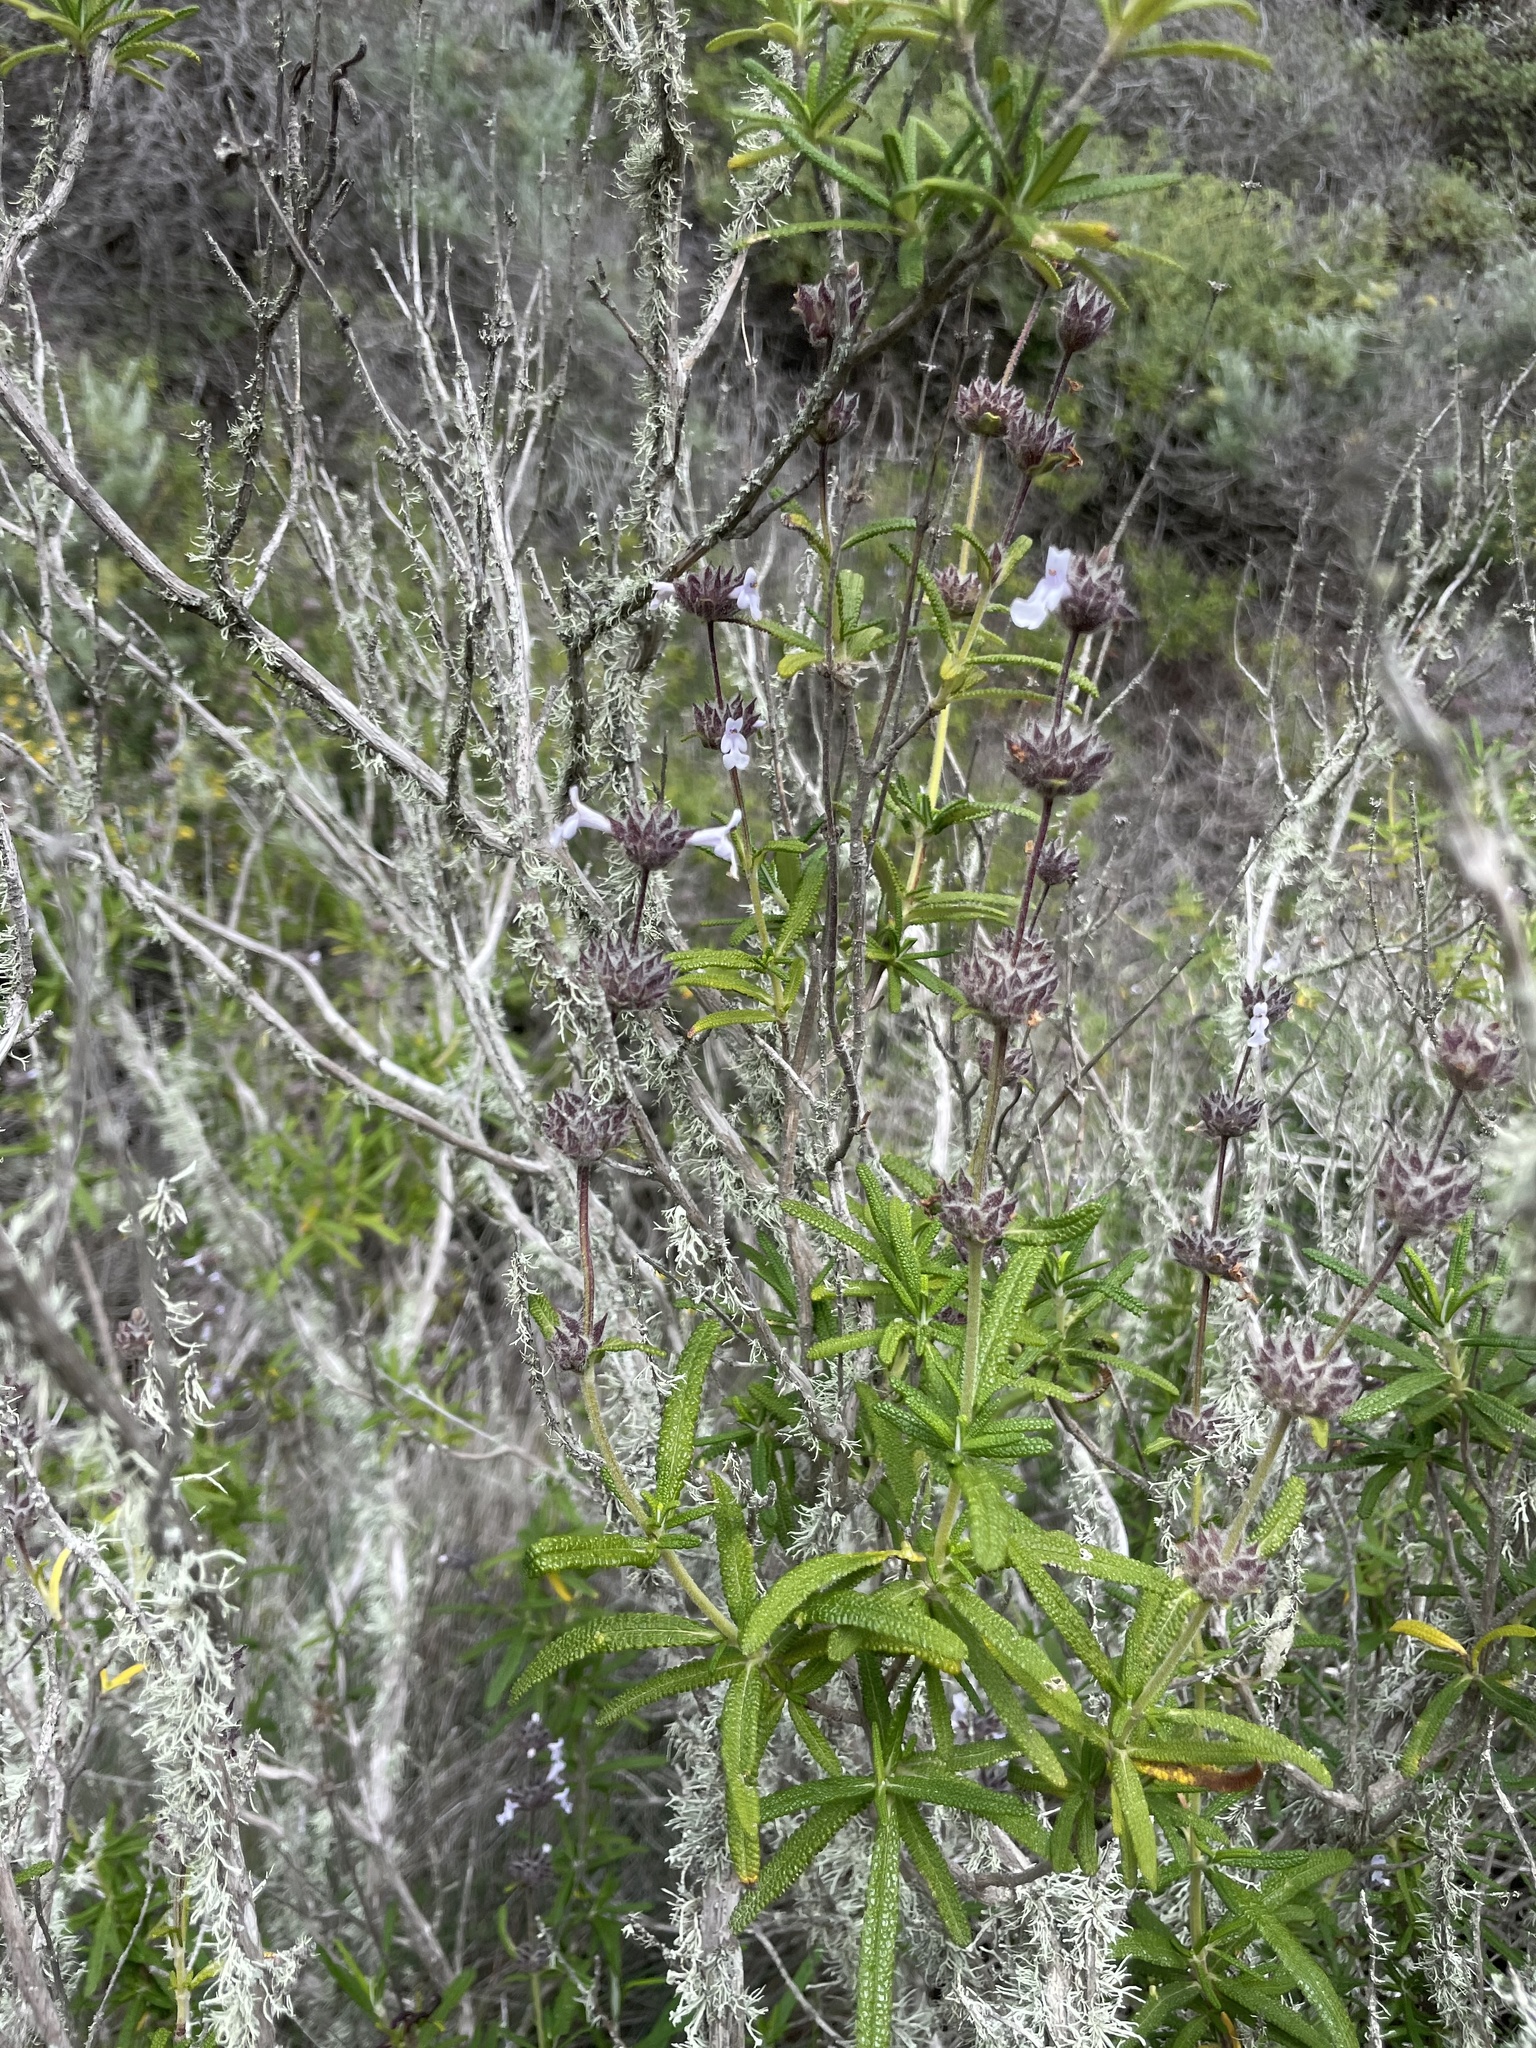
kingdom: Plantae
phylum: Tracheophyta
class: Magnoliopsida
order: Lamiales
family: Lamiaceae
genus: Salvia
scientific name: Salvia brandegeei
